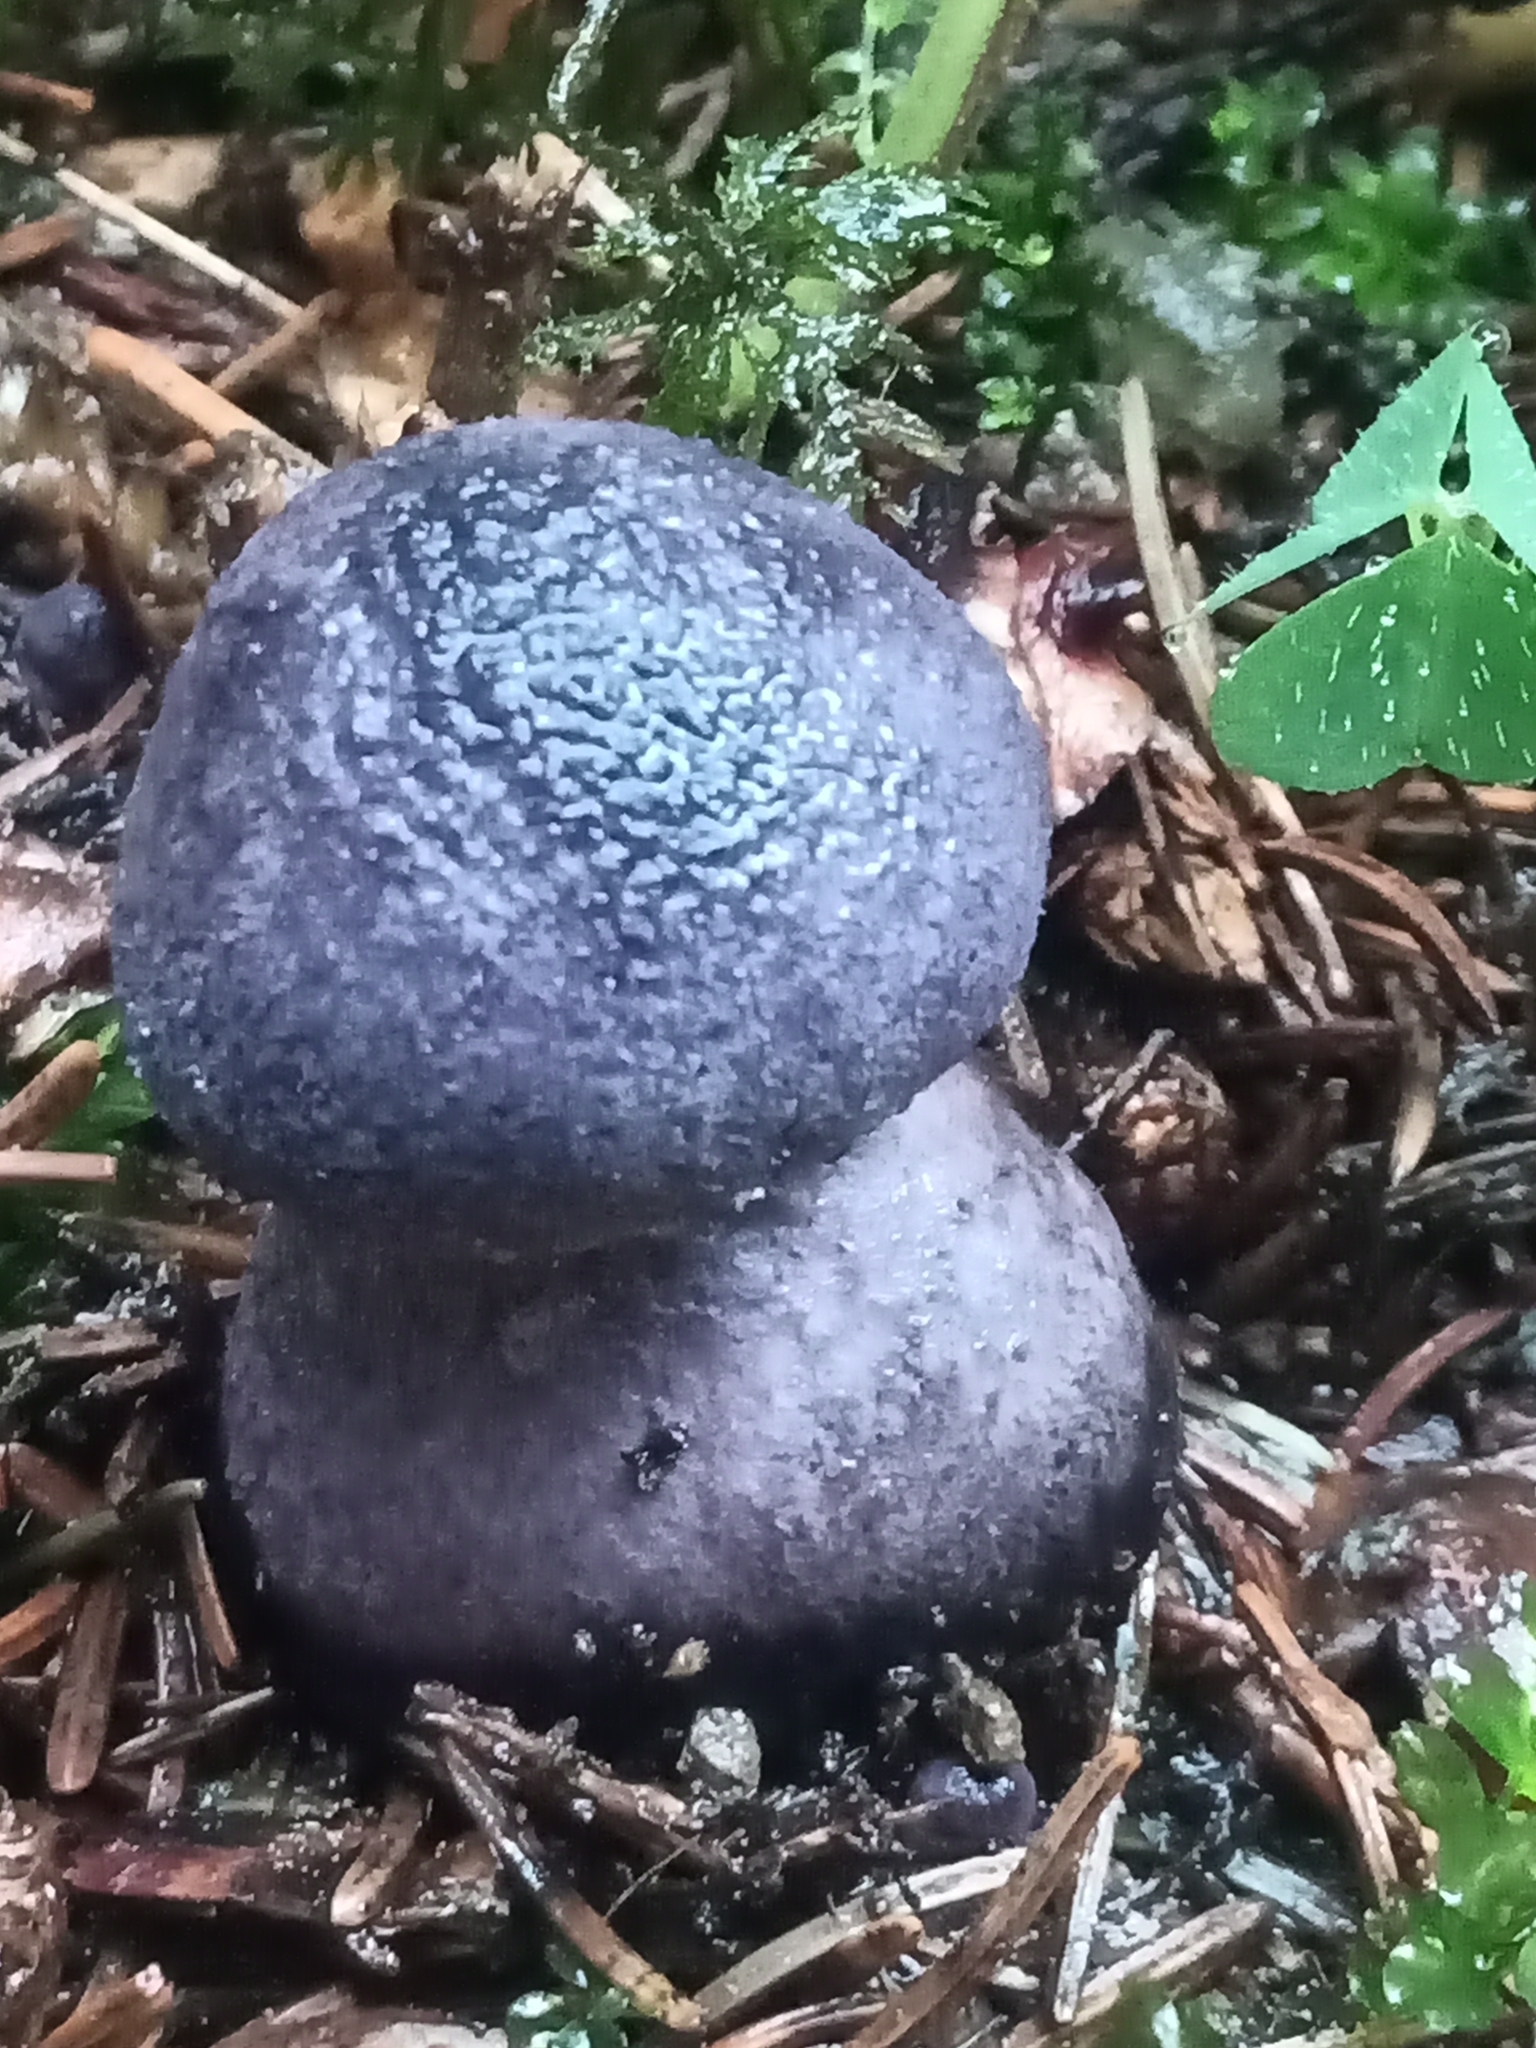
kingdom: Fungi
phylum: Basidiomycota
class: Agaricomycetes
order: Agaricales
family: Cortinariaceae
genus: Cortinarius
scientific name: Cortinarius violaceus
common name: Violet webcap
